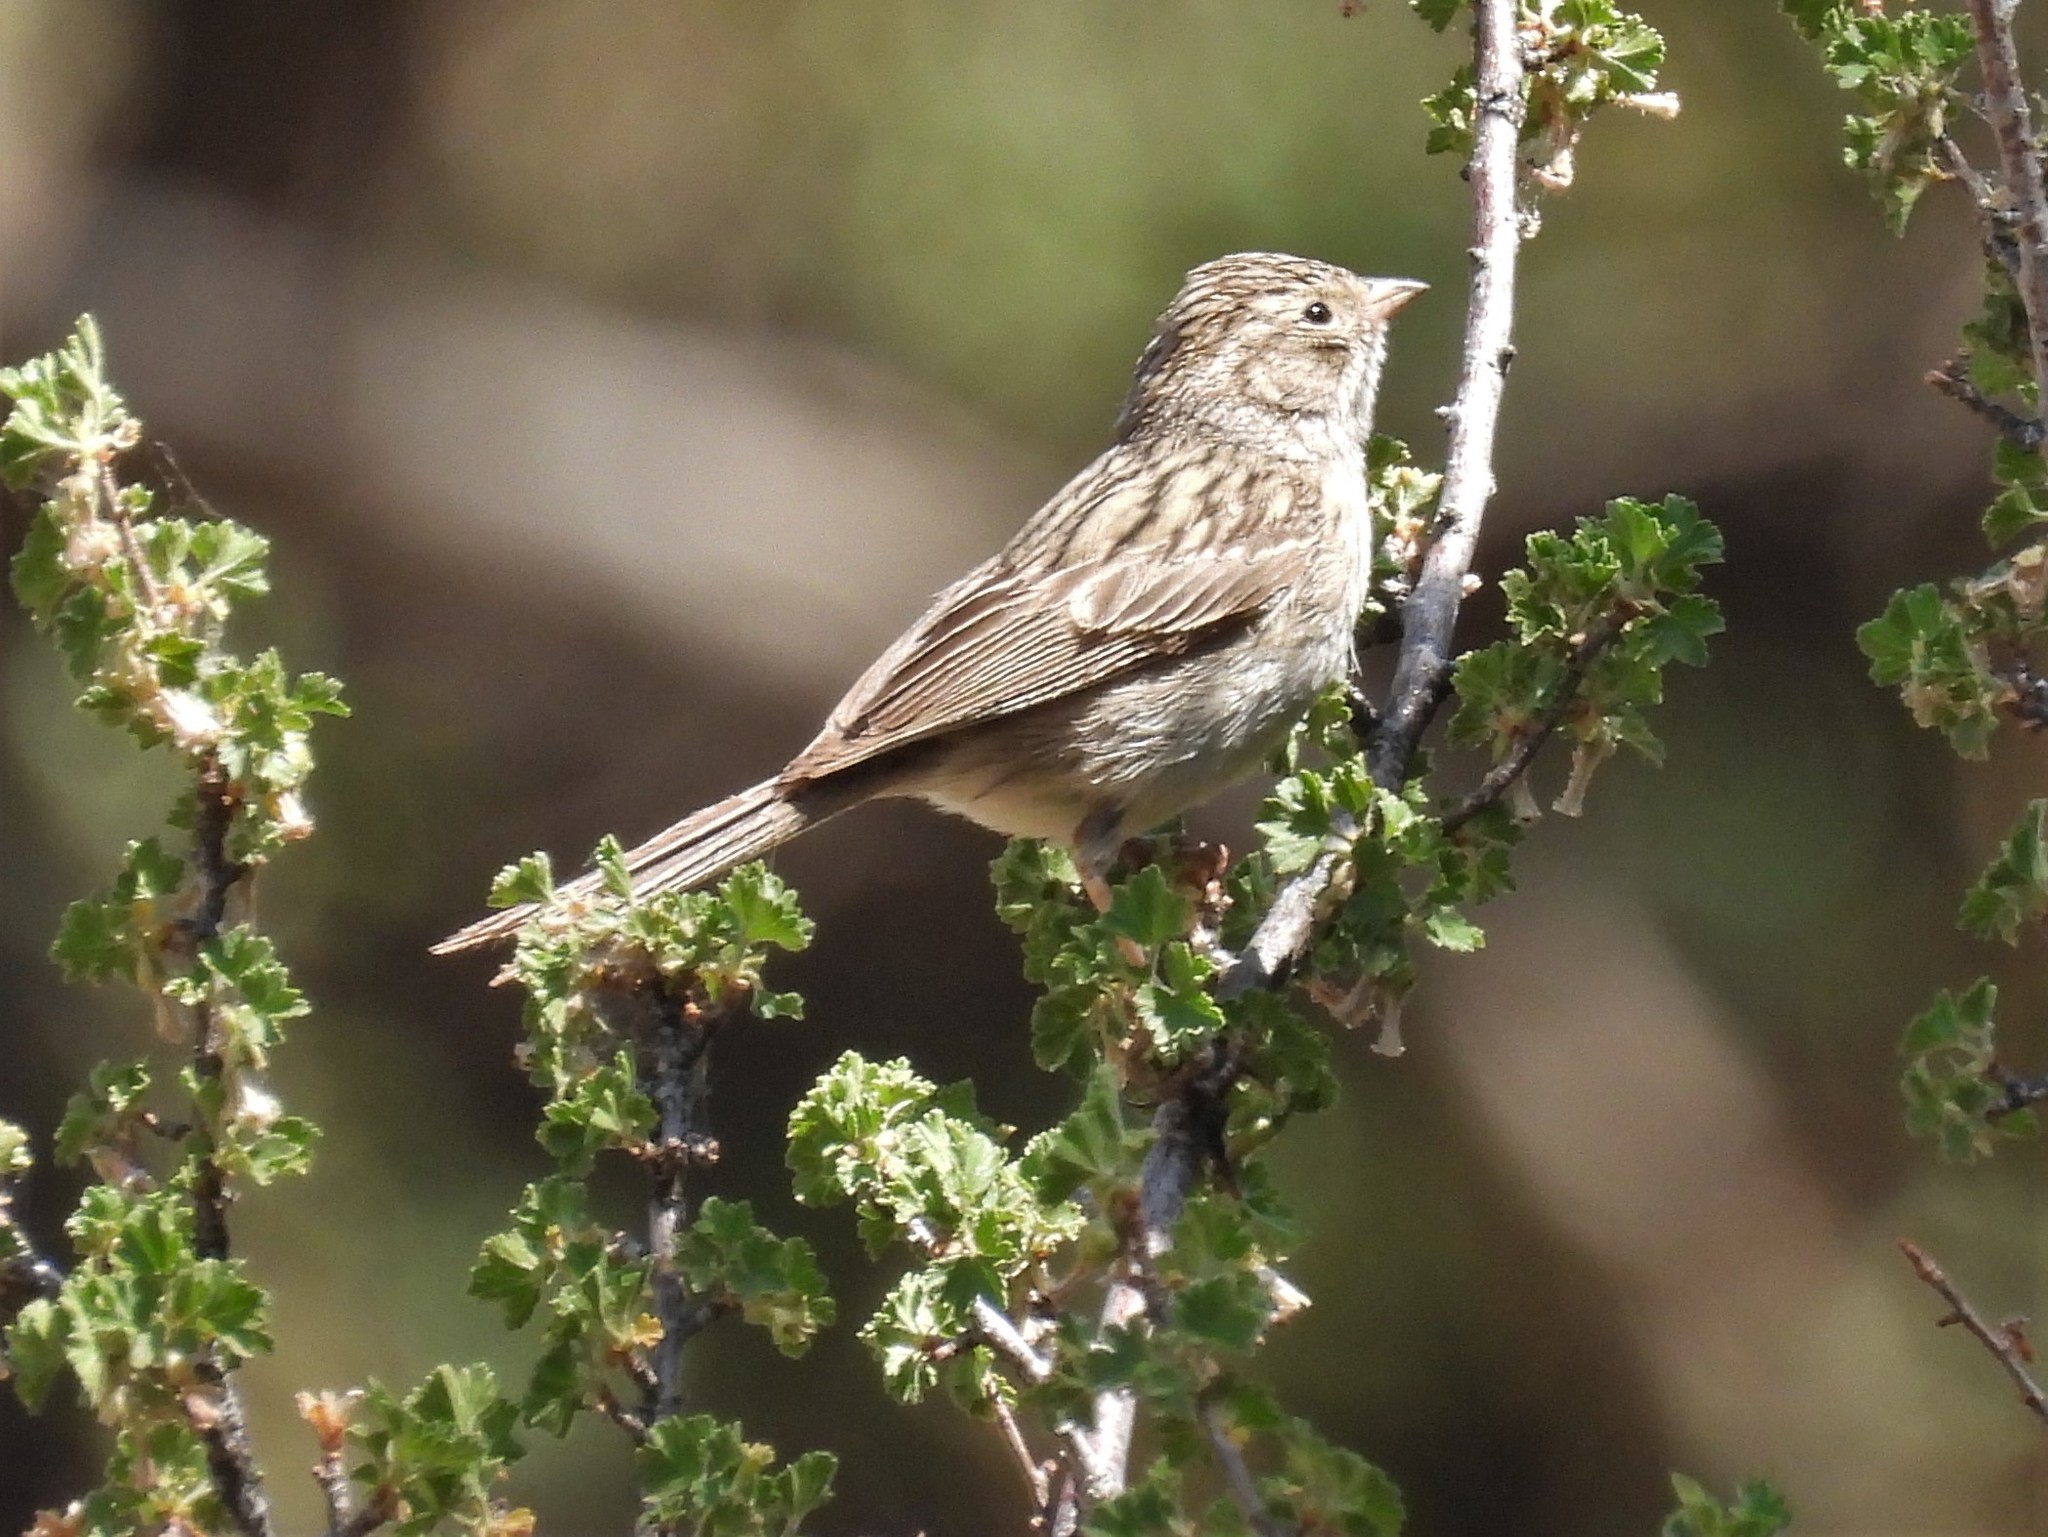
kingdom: Animalia
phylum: Chordata
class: Aves
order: Passeriformes
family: Passerellidae
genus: Spizella
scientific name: Spizella breweri
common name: Brewer's sparrow
